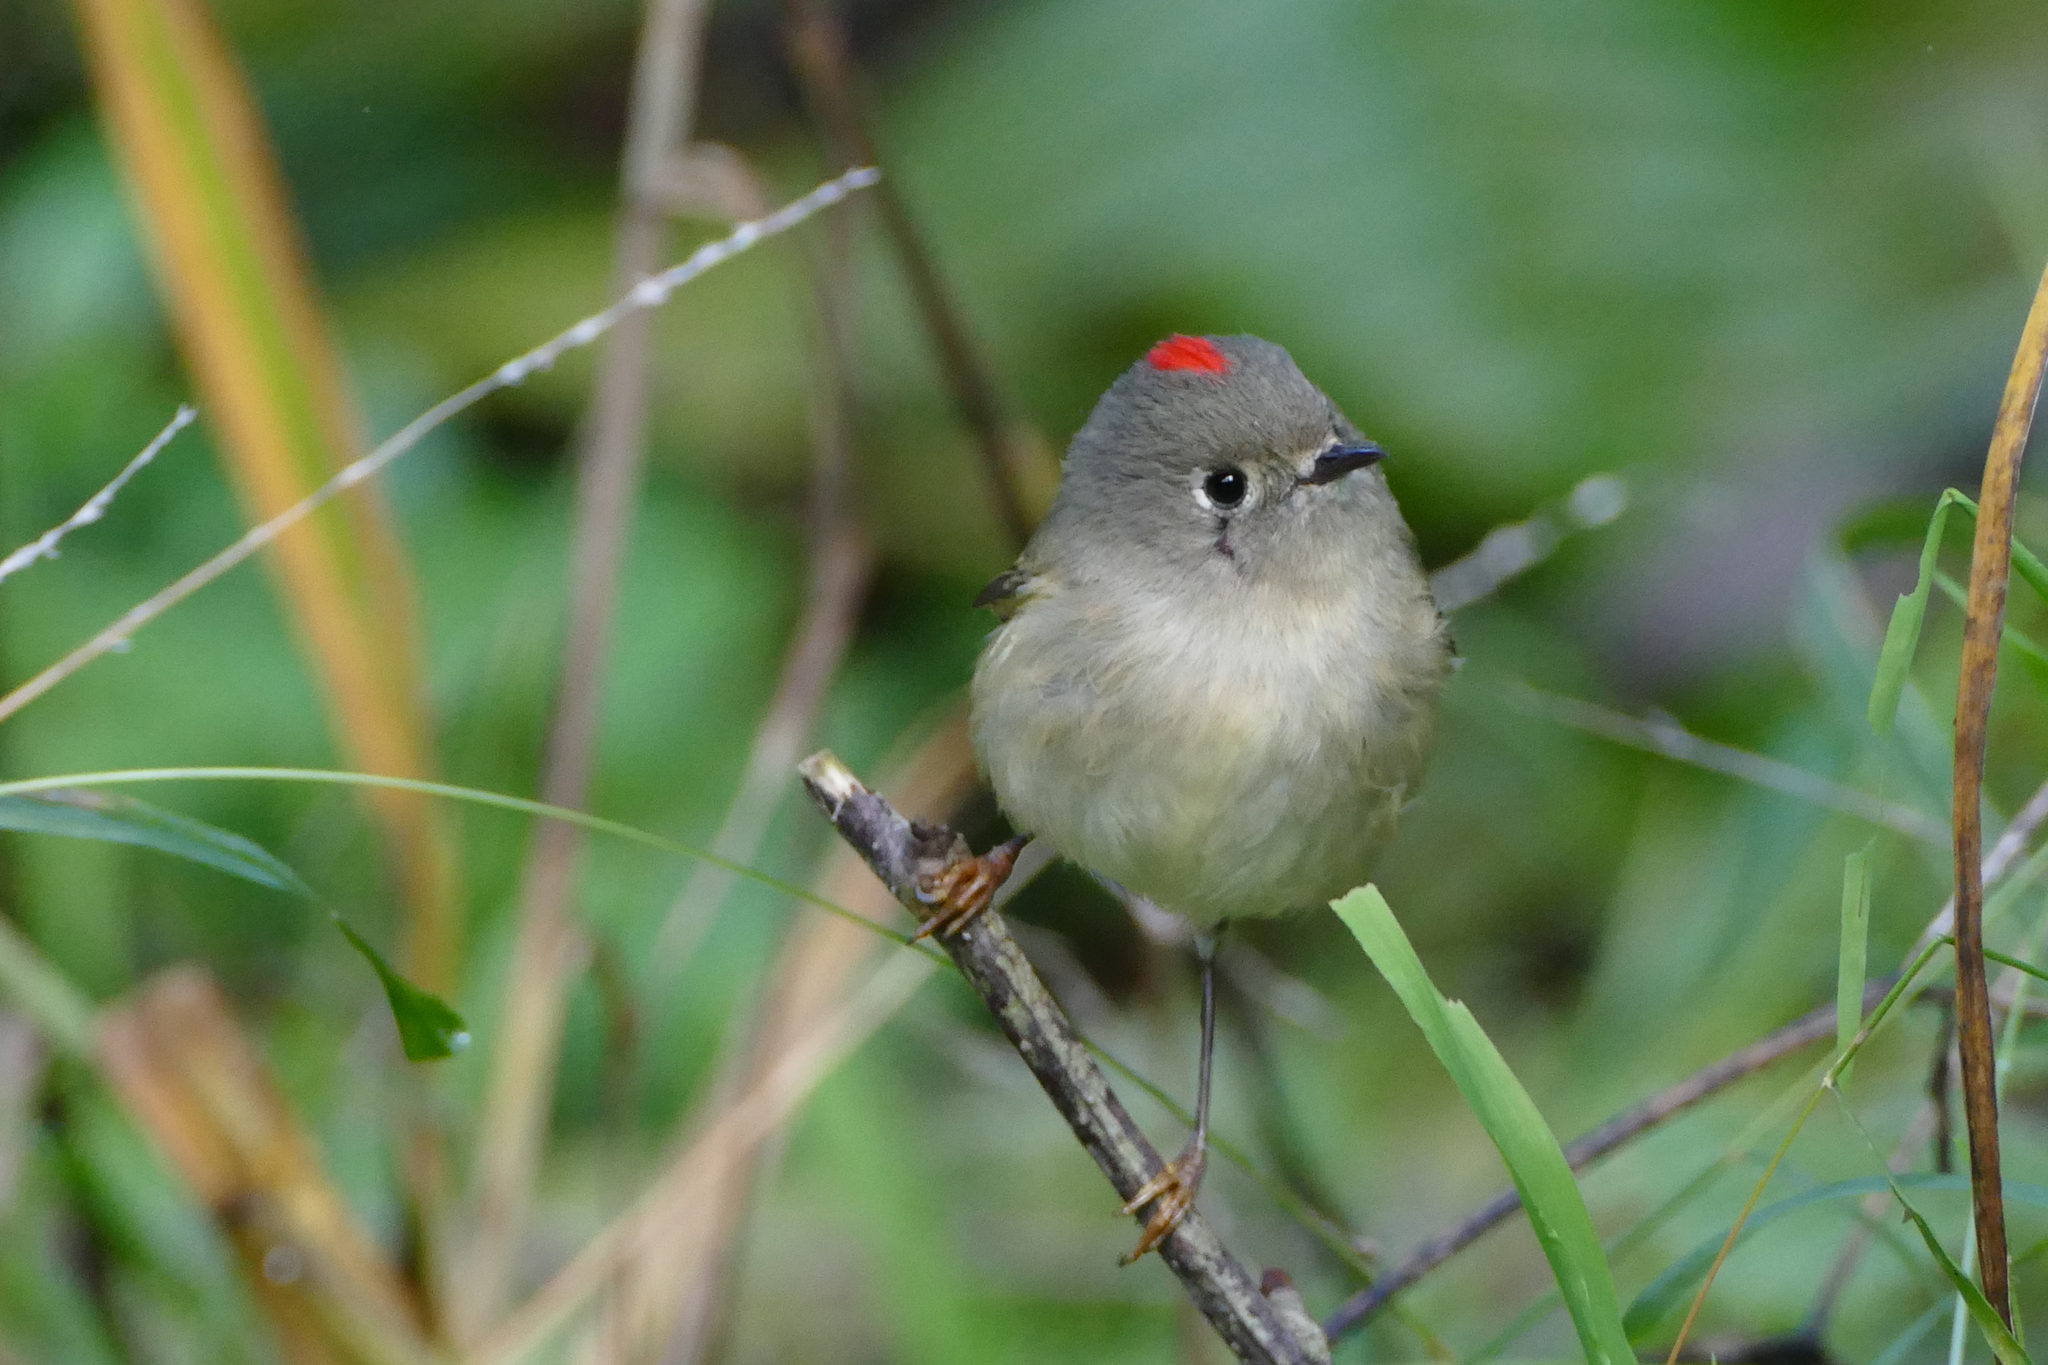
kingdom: Animalia
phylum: Chordata
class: Aves
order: Passeriformes
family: Regulidae
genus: Regulus
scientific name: Regulus calendula
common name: Ruby-crowned kinglet
